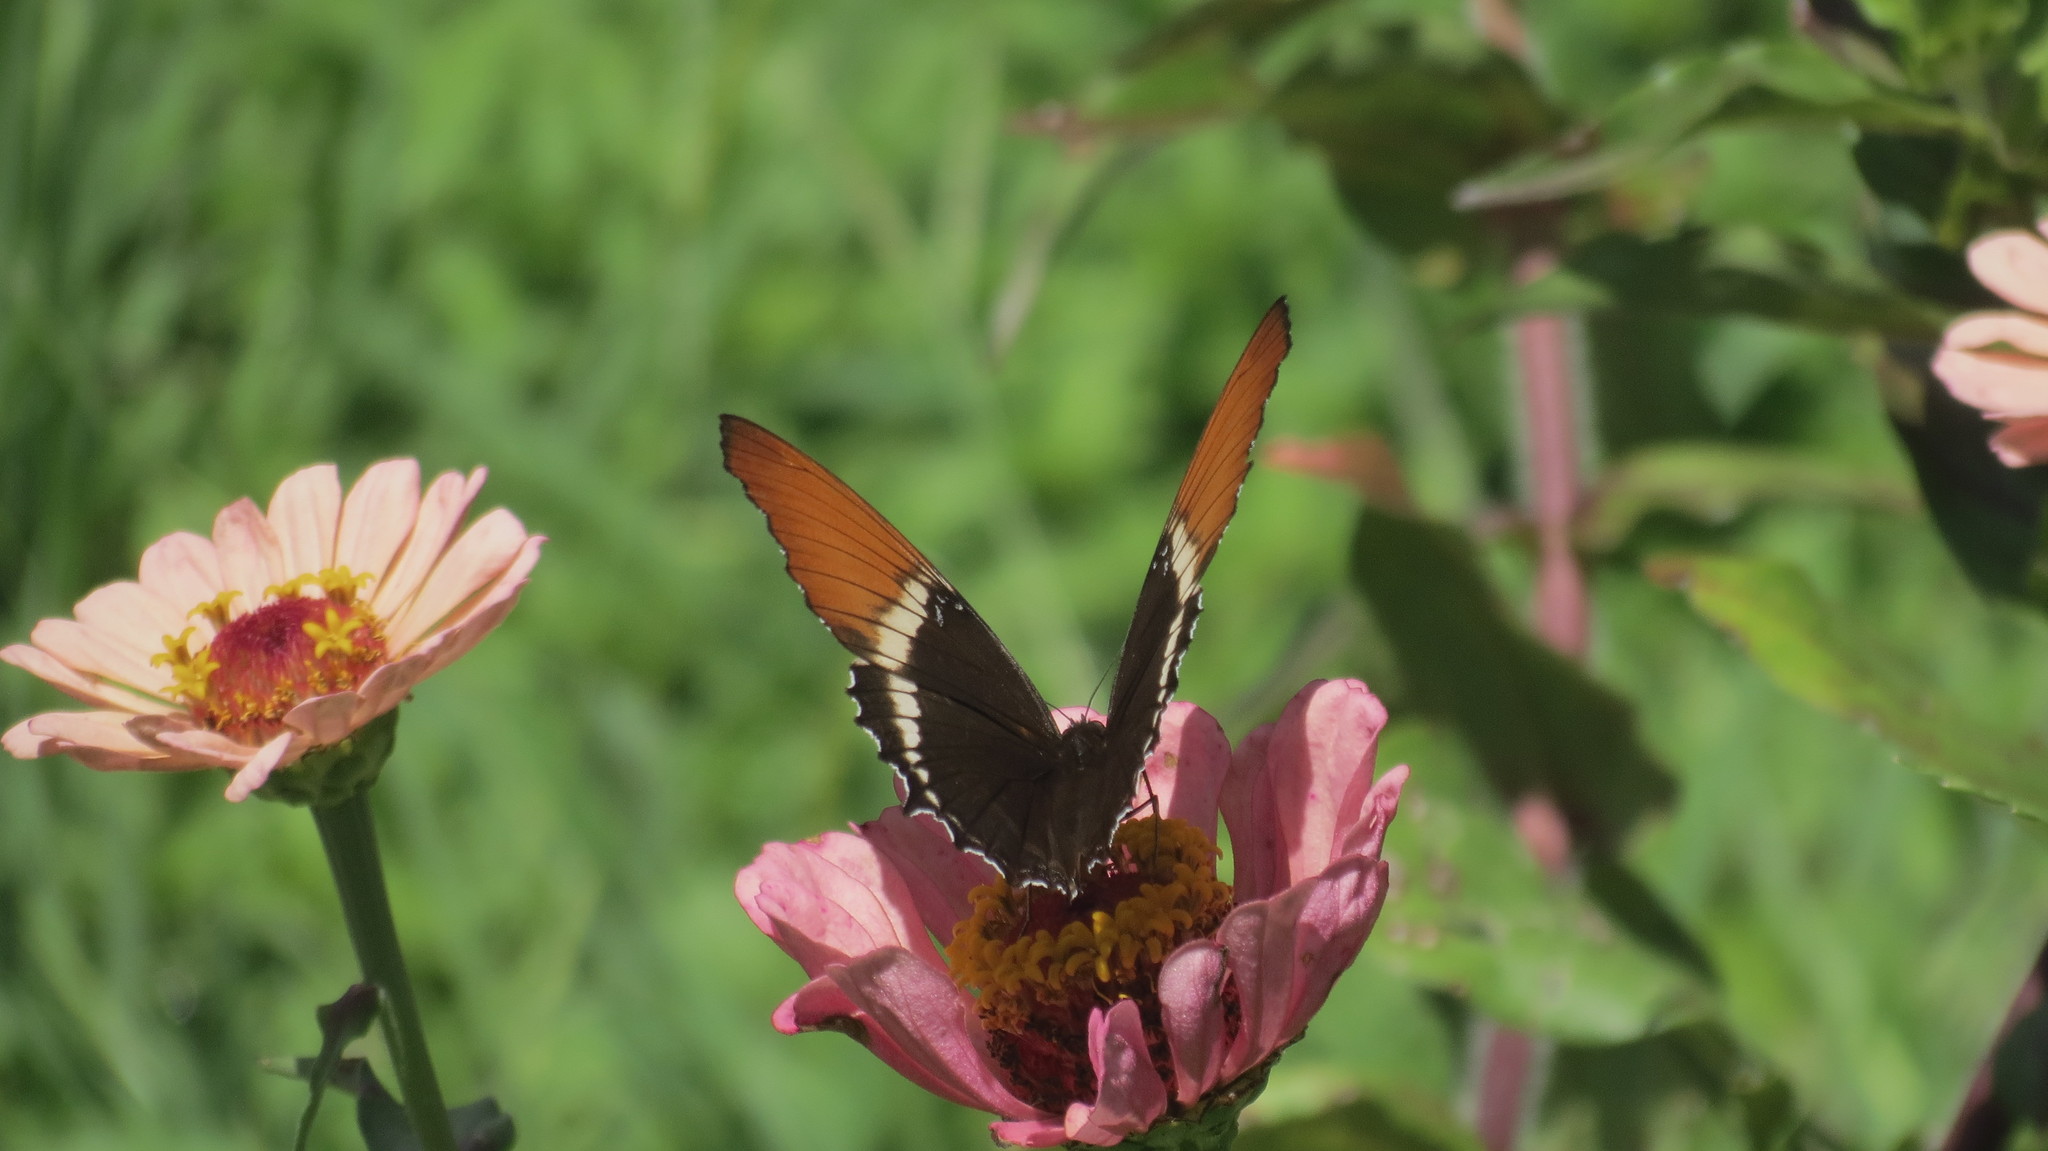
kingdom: Animalia
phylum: Arthropoda
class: Insecta
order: Lepidoptera
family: Nymphalidae
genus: Siproeta
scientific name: Siproeta epaphus
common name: Rusty-tipped page
